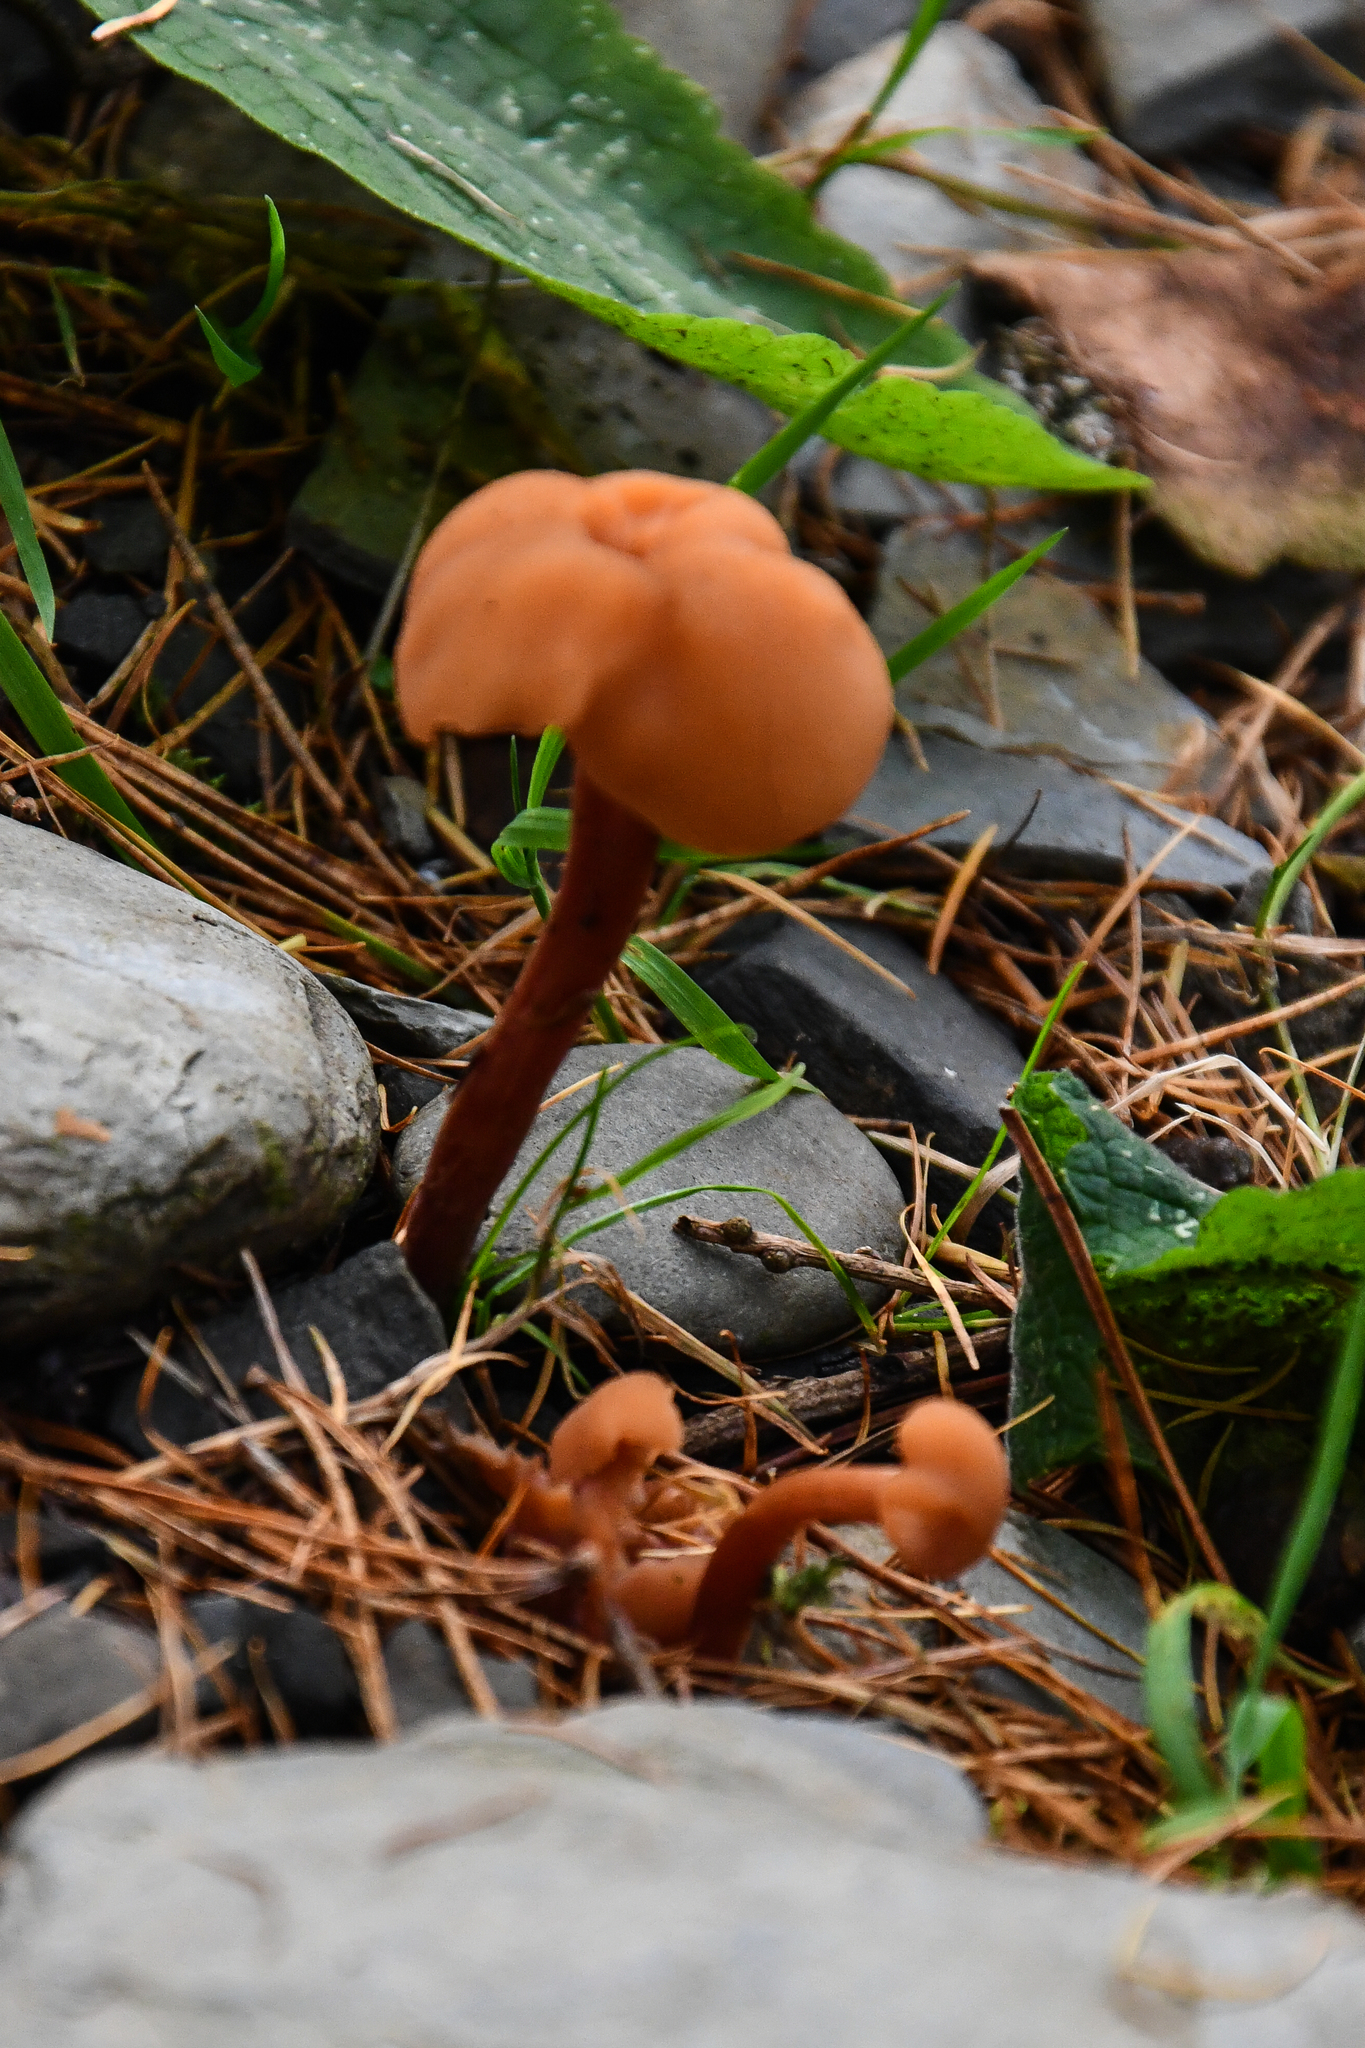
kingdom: Fungi
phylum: Basidiomycota
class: Agaricomycetes
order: Agaricales
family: Hydnangiaceae
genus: Laccaria
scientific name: Laccaria laccata
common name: Deceiver
